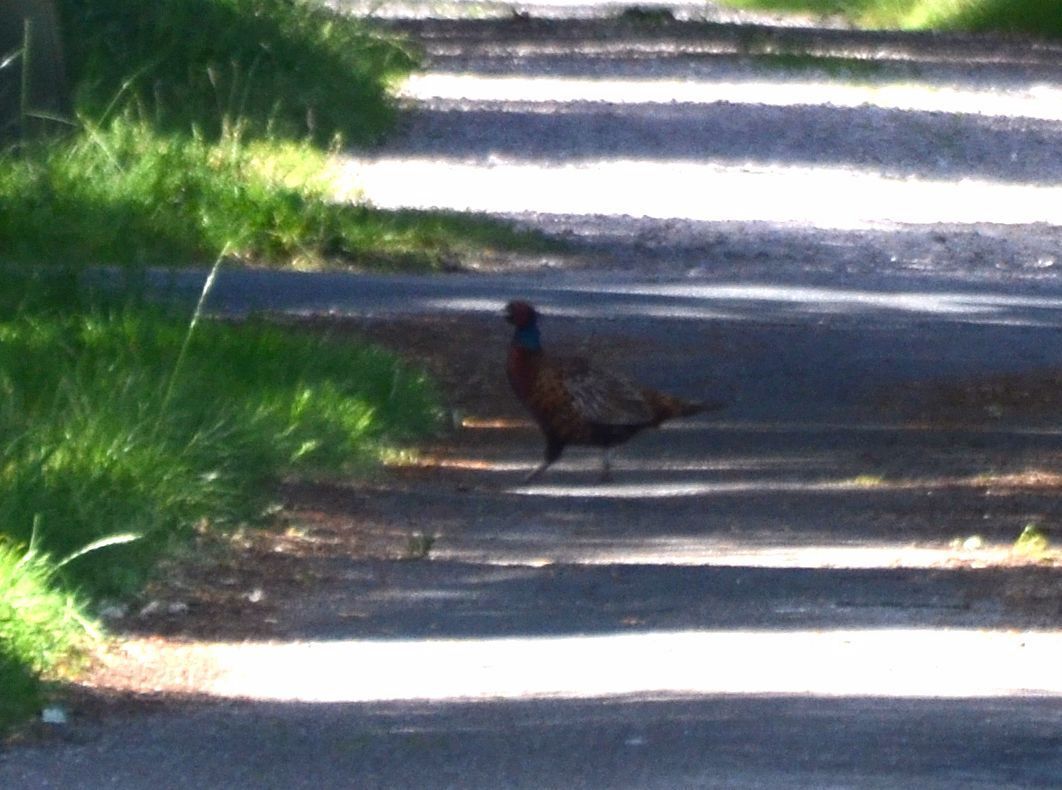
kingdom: Animalia
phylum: Chordata
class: Aves
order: Galliformes
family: Phasianidae
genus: Phasianus
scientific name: Phasianus colchicus
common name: Common pheasant
